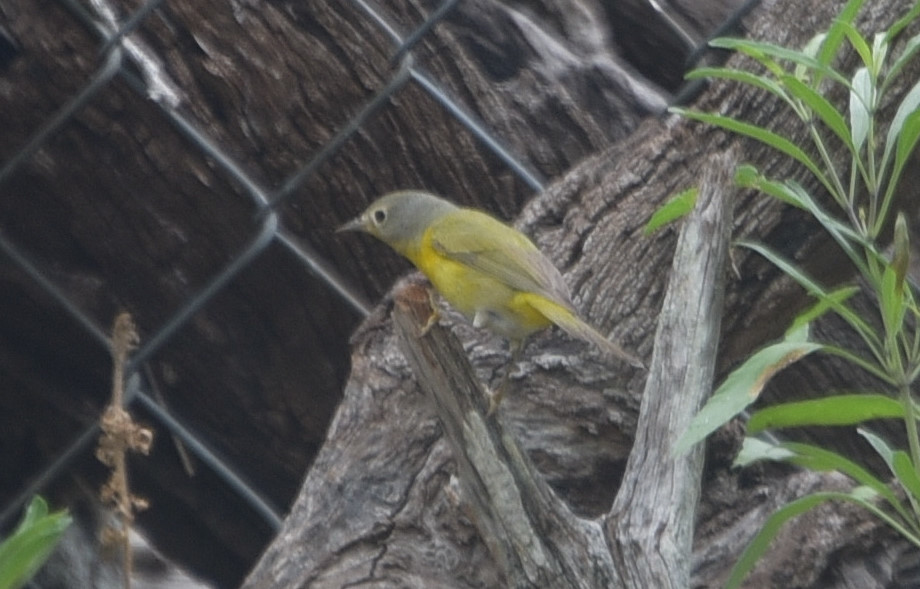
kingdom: Animalia
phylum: Chordata
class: Aves
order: Passeriformes
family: Parulidae
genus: Leiothlypis
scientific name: Leiothlypis ruficapilla
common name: Nashville warbler
